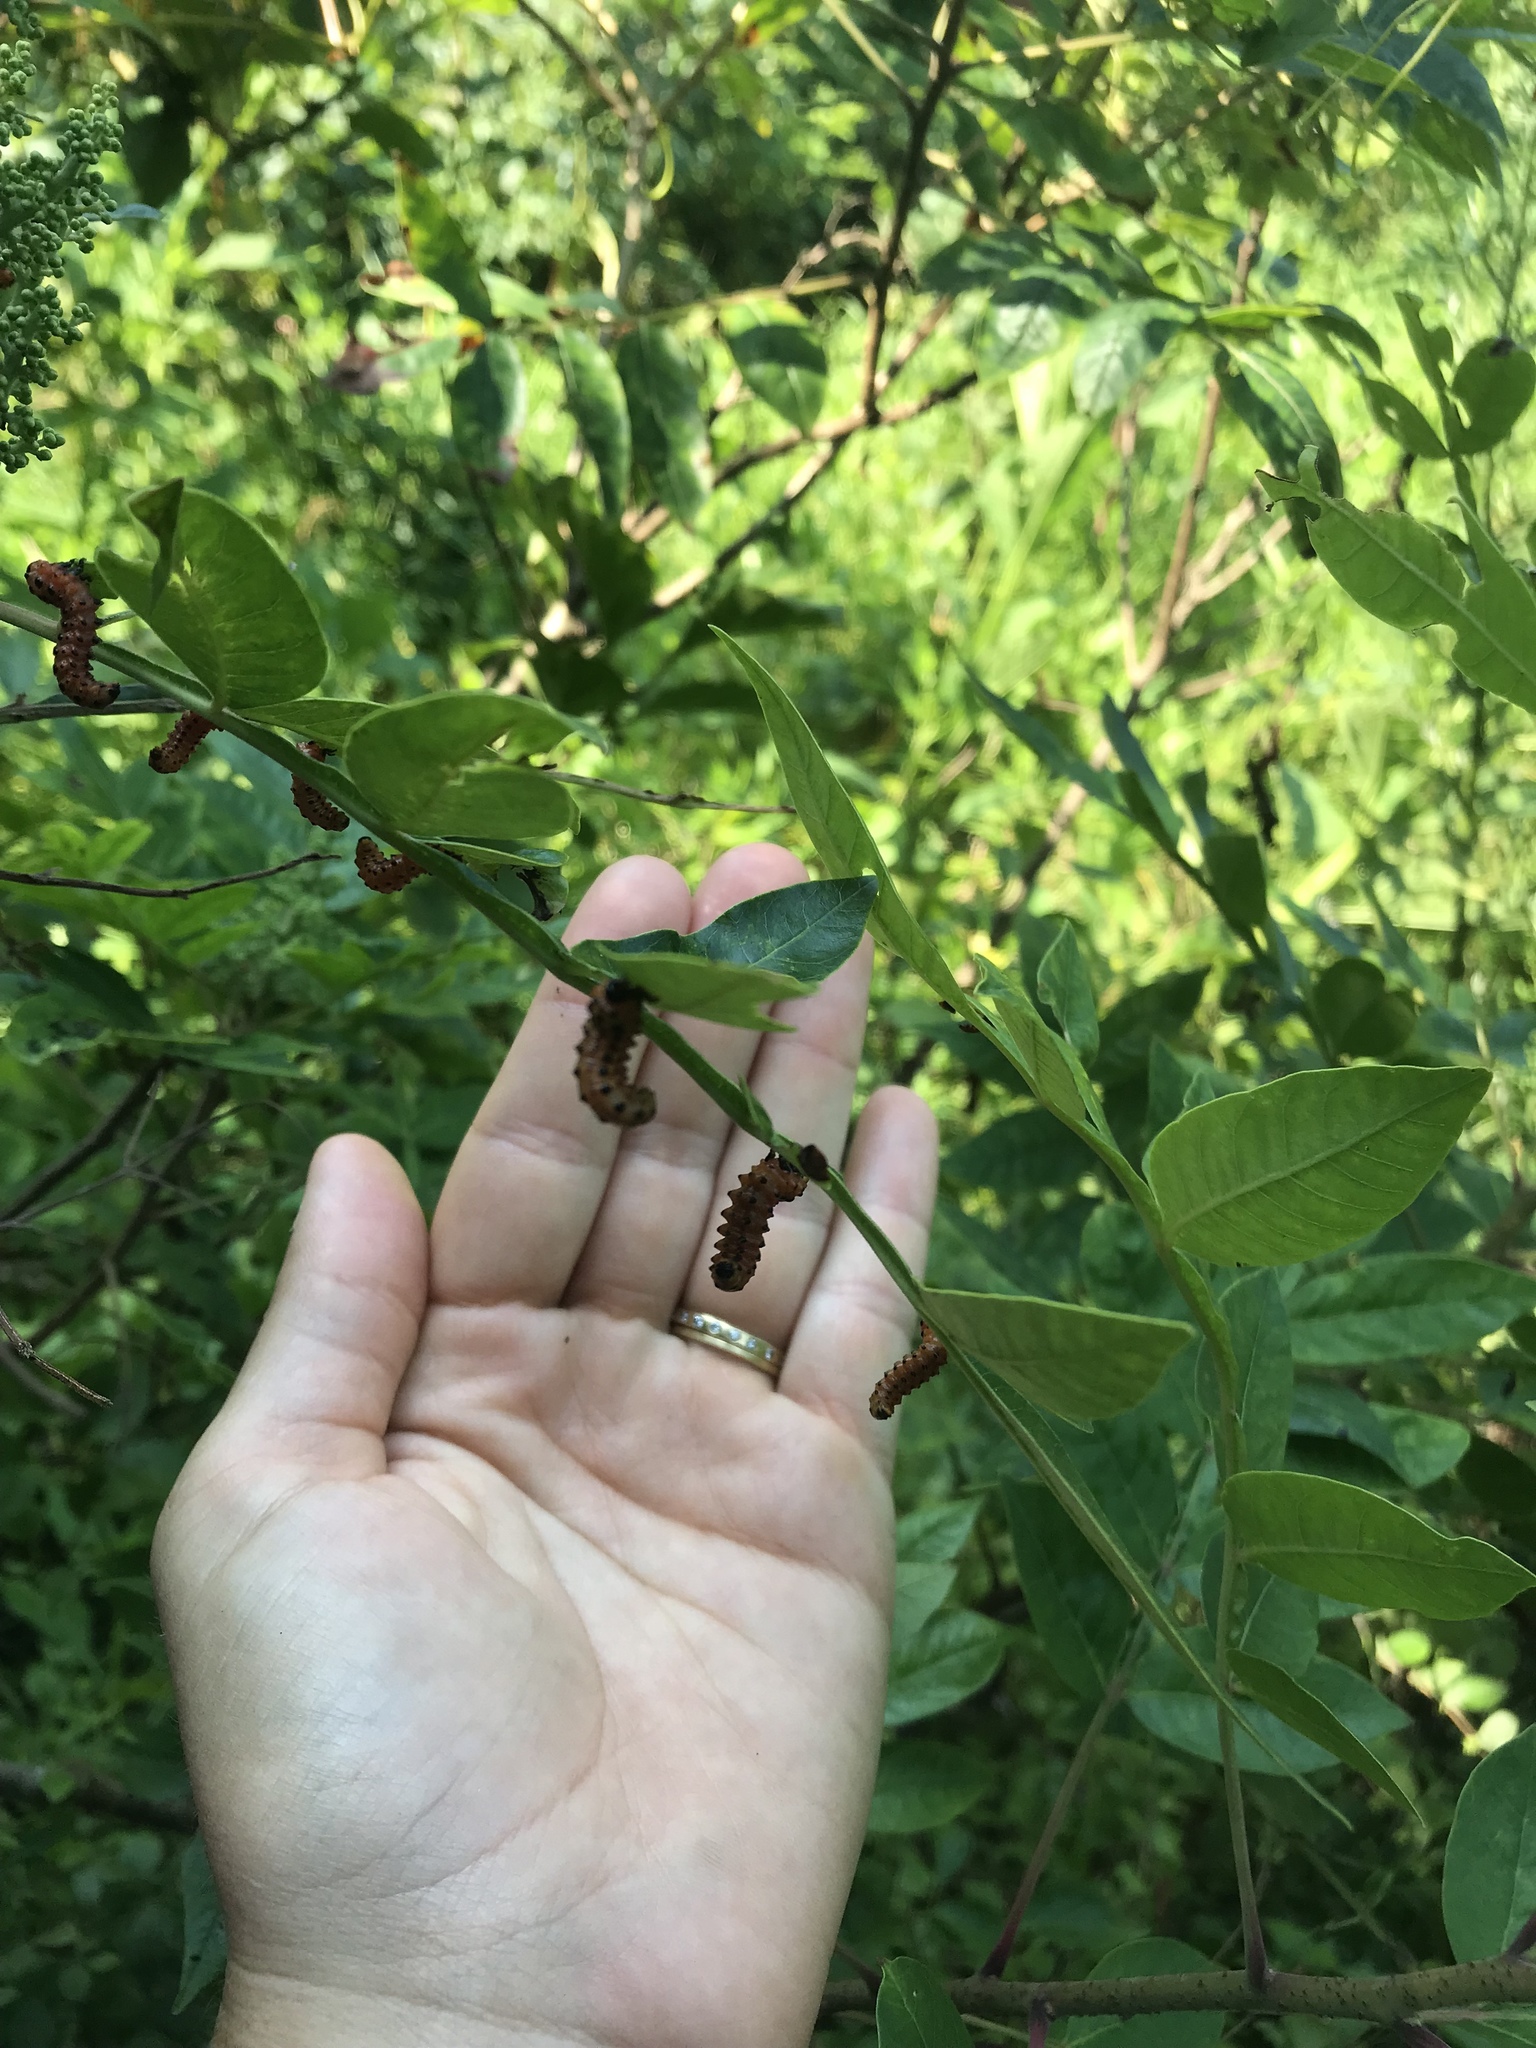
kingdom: Animalia
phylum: Arthropoda
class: Insecta
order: Hymenoptera
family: Argidae
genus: Arge
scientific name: Arge
